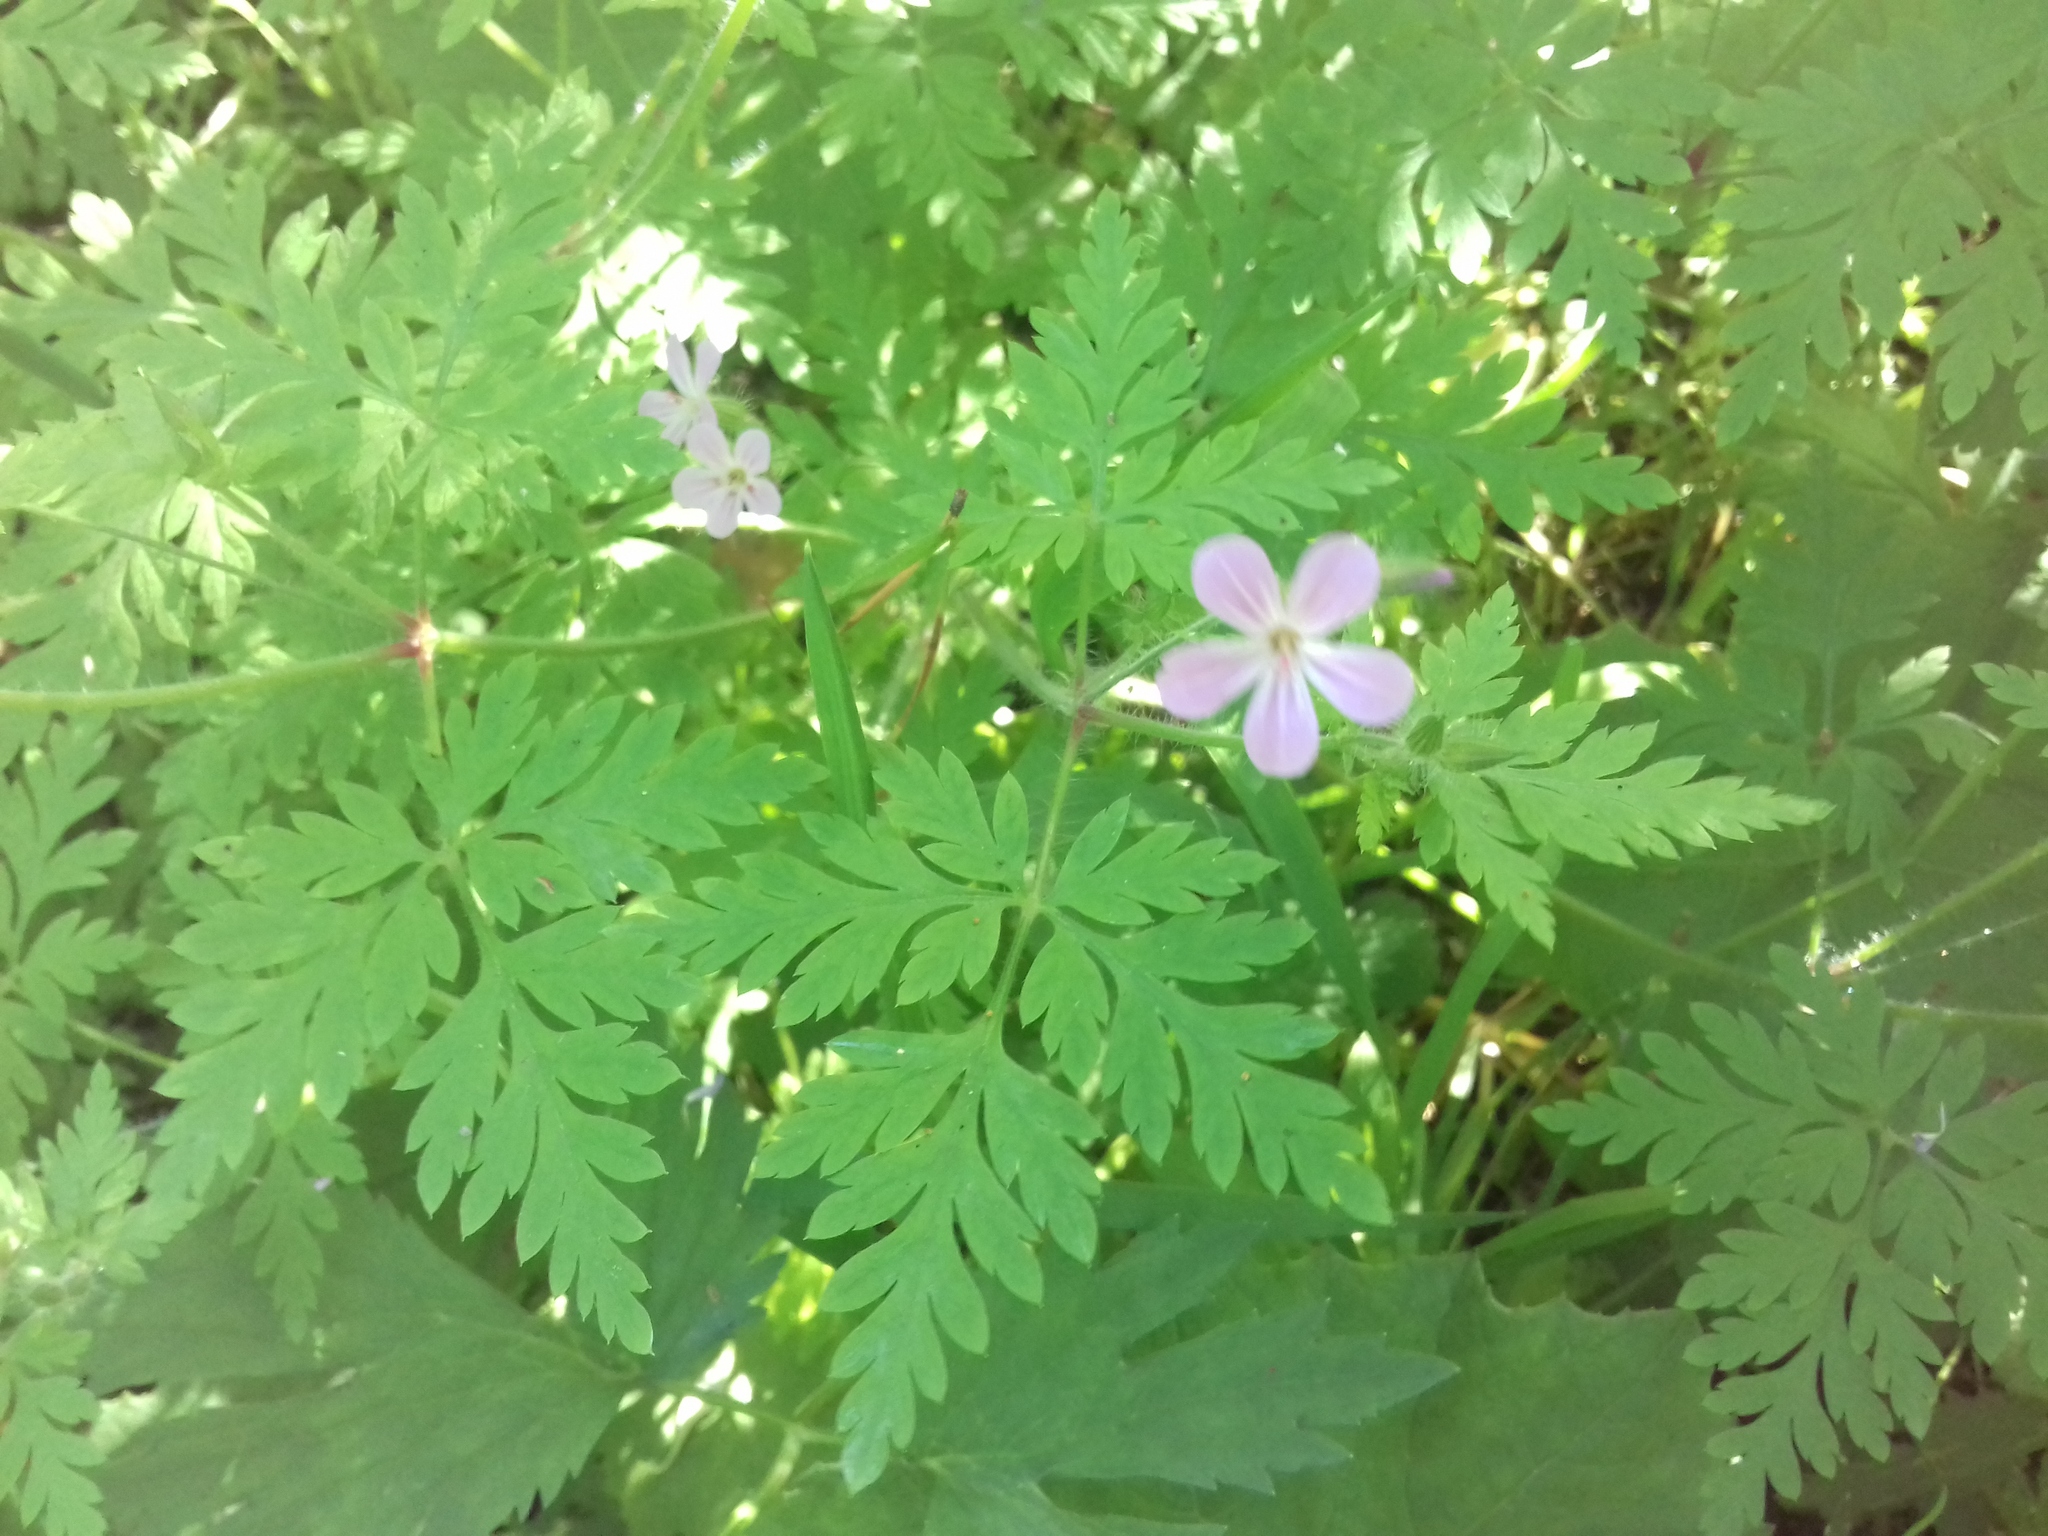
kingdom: Plantae
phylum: Tracheophyta
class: Magnoliopsida
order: Geraniales
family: Geraniaceae
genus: Geranium
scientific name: Geranium robertianum
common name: Herb-robert
